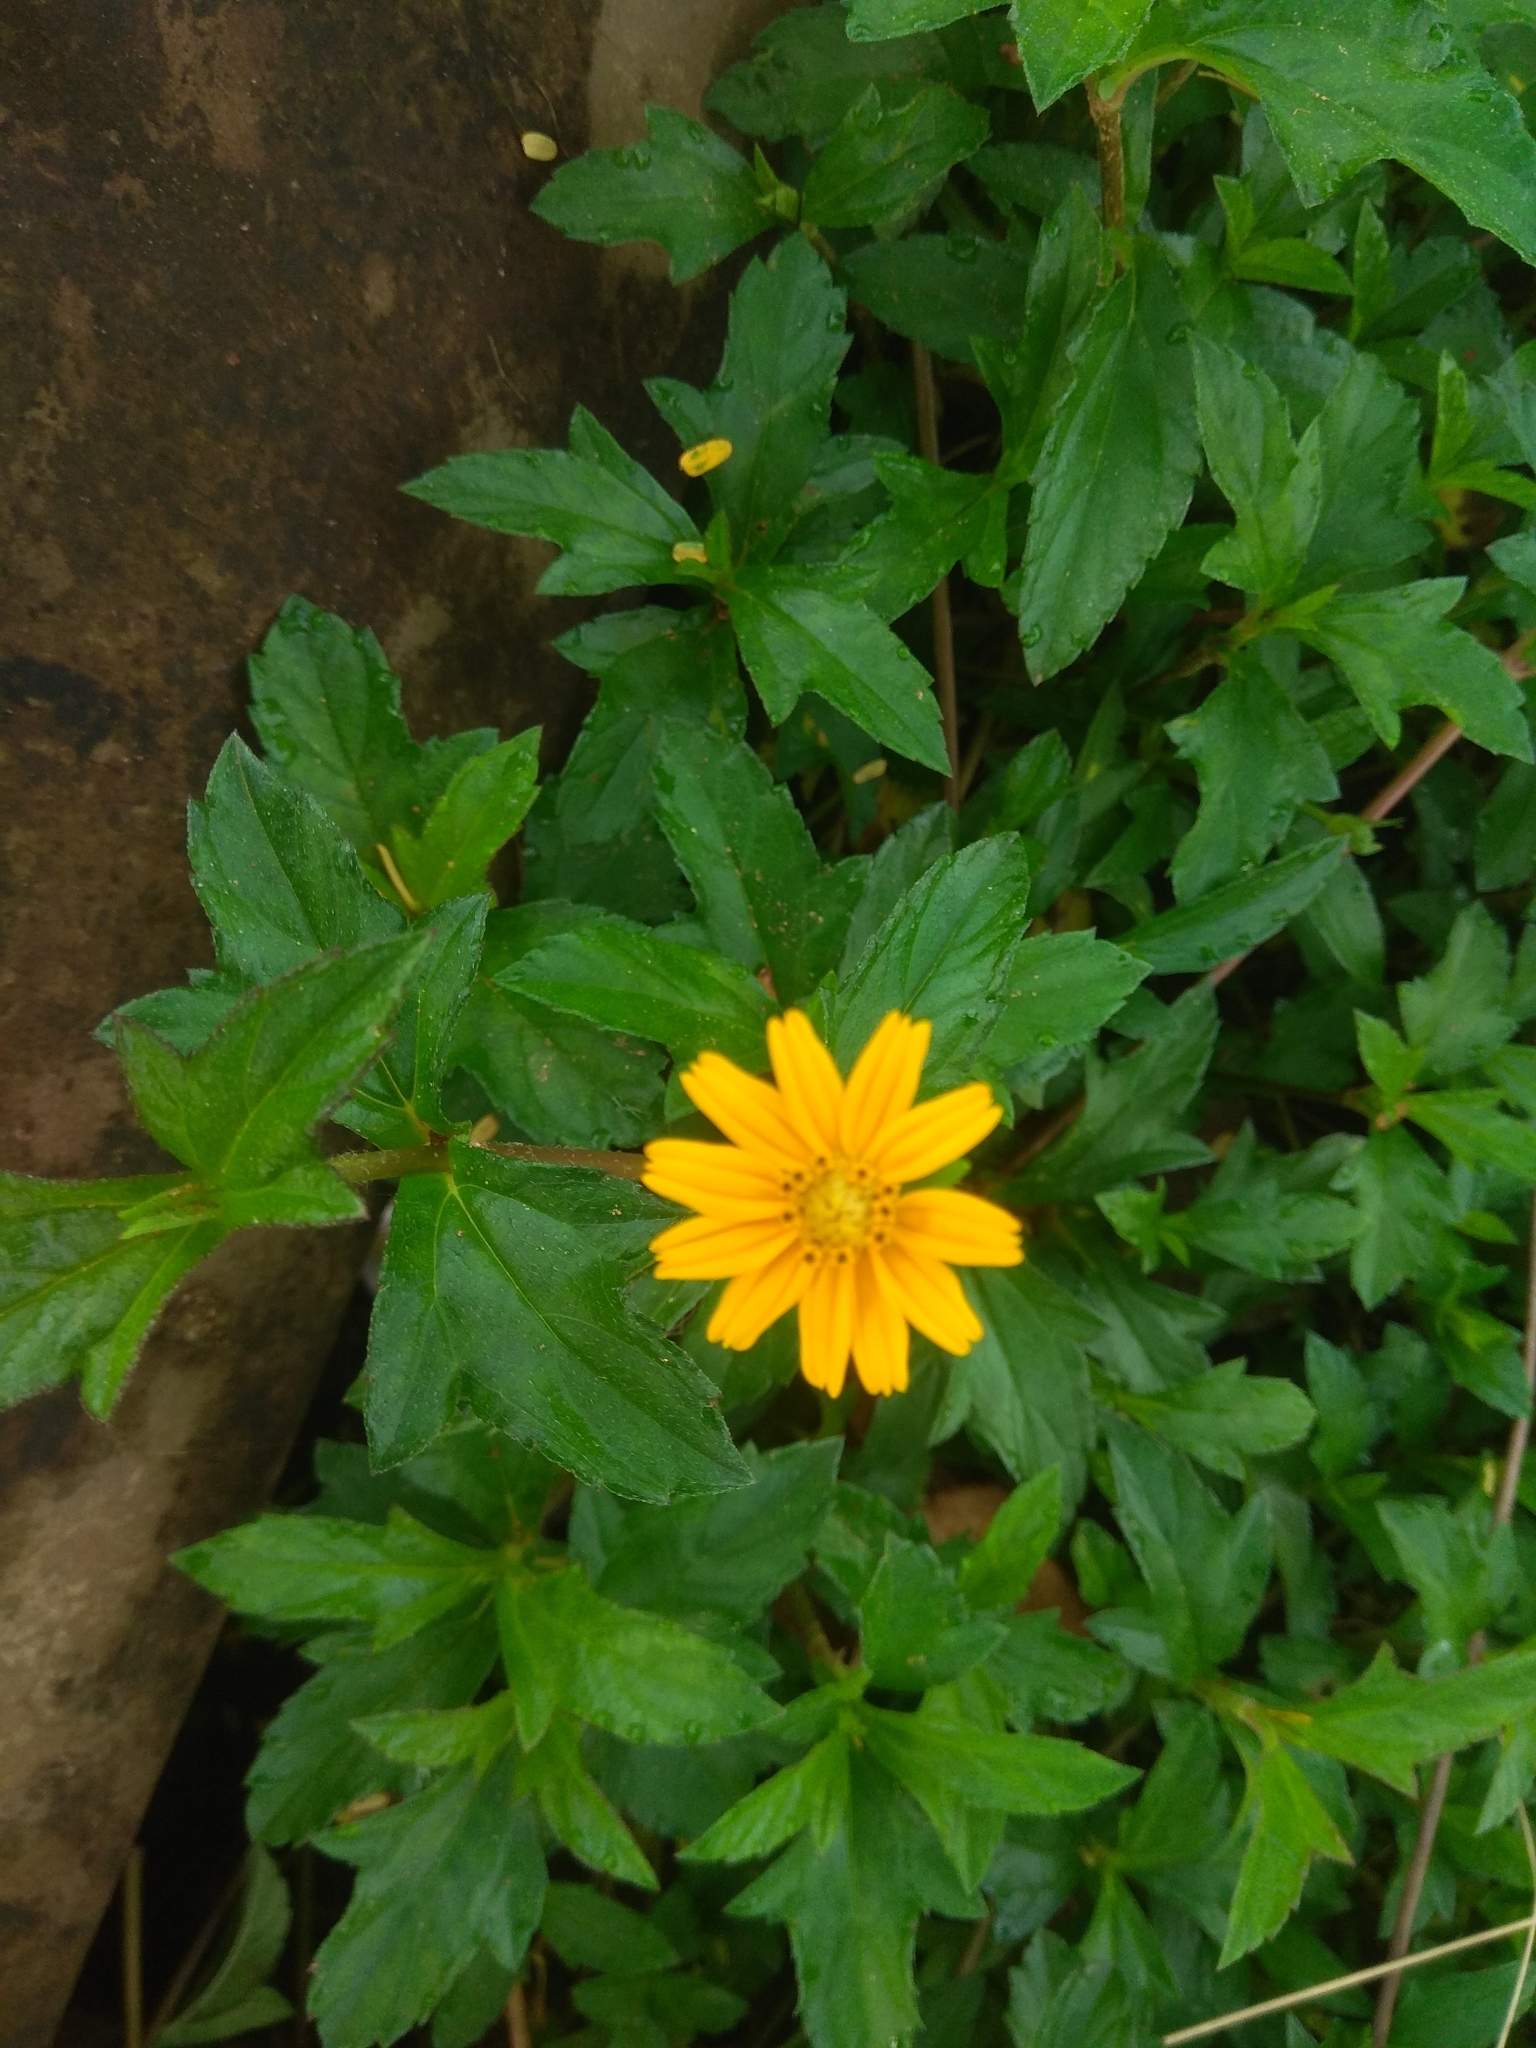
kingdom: Plantae
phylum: Tracheophyta
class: Magnoliopsida
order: Asterales
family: Asteraceae
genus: Sphagneticola
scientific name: Sphagneticola trilobata
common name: Bay biscayne creeping-oxeye
